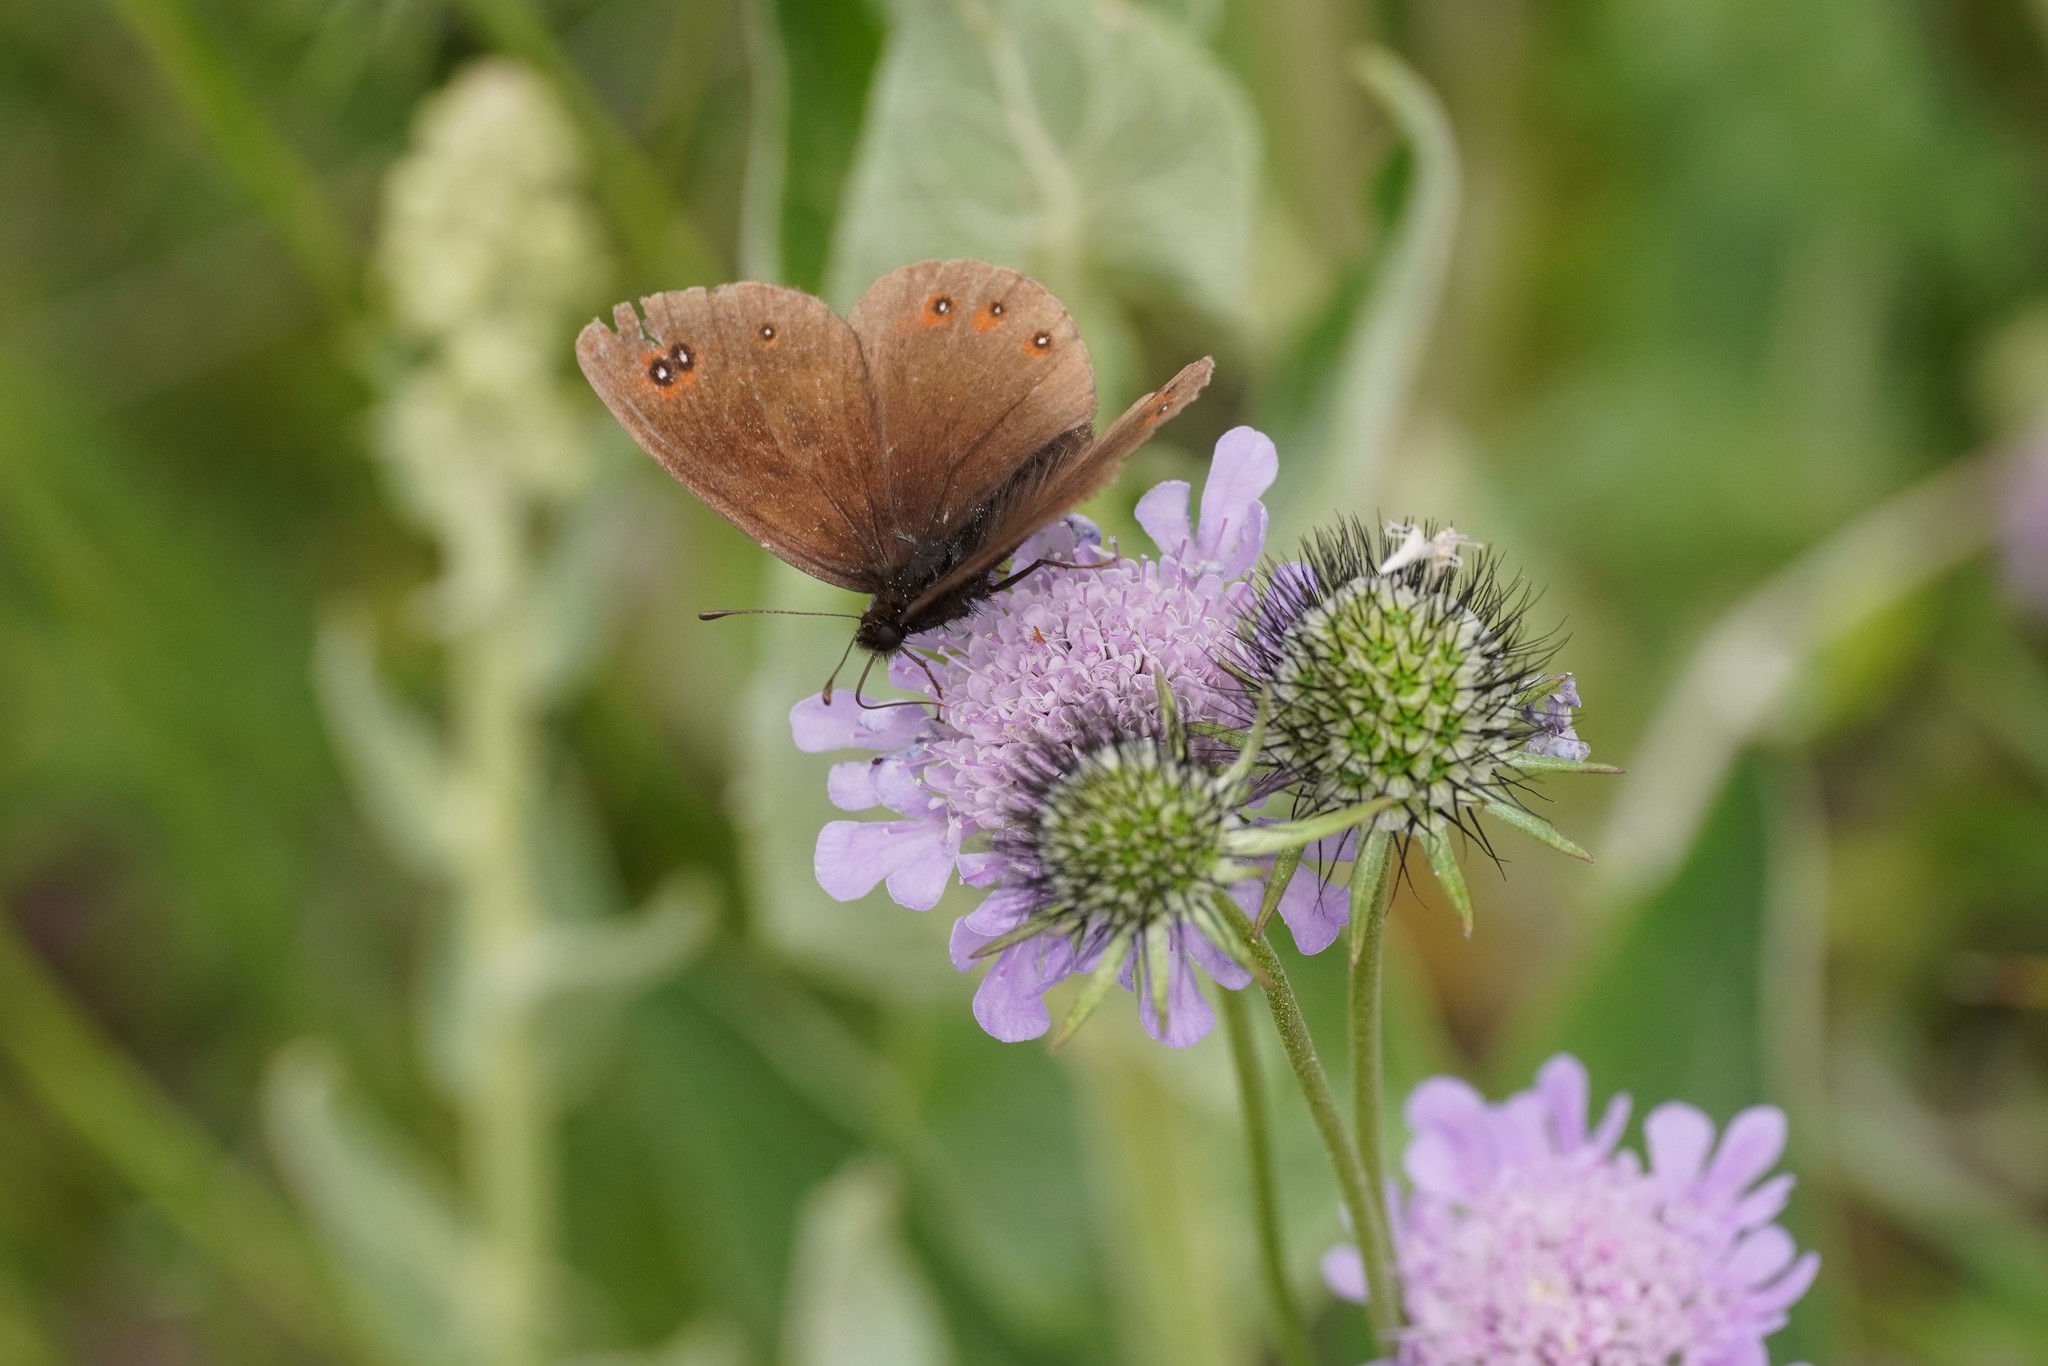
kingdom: Animalia
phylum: Arthropoda
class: Insecta
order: Lepidoptera
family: Nymphalidae
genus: Erebia
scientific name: Erebia meolans
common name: Piedmont ringlet
